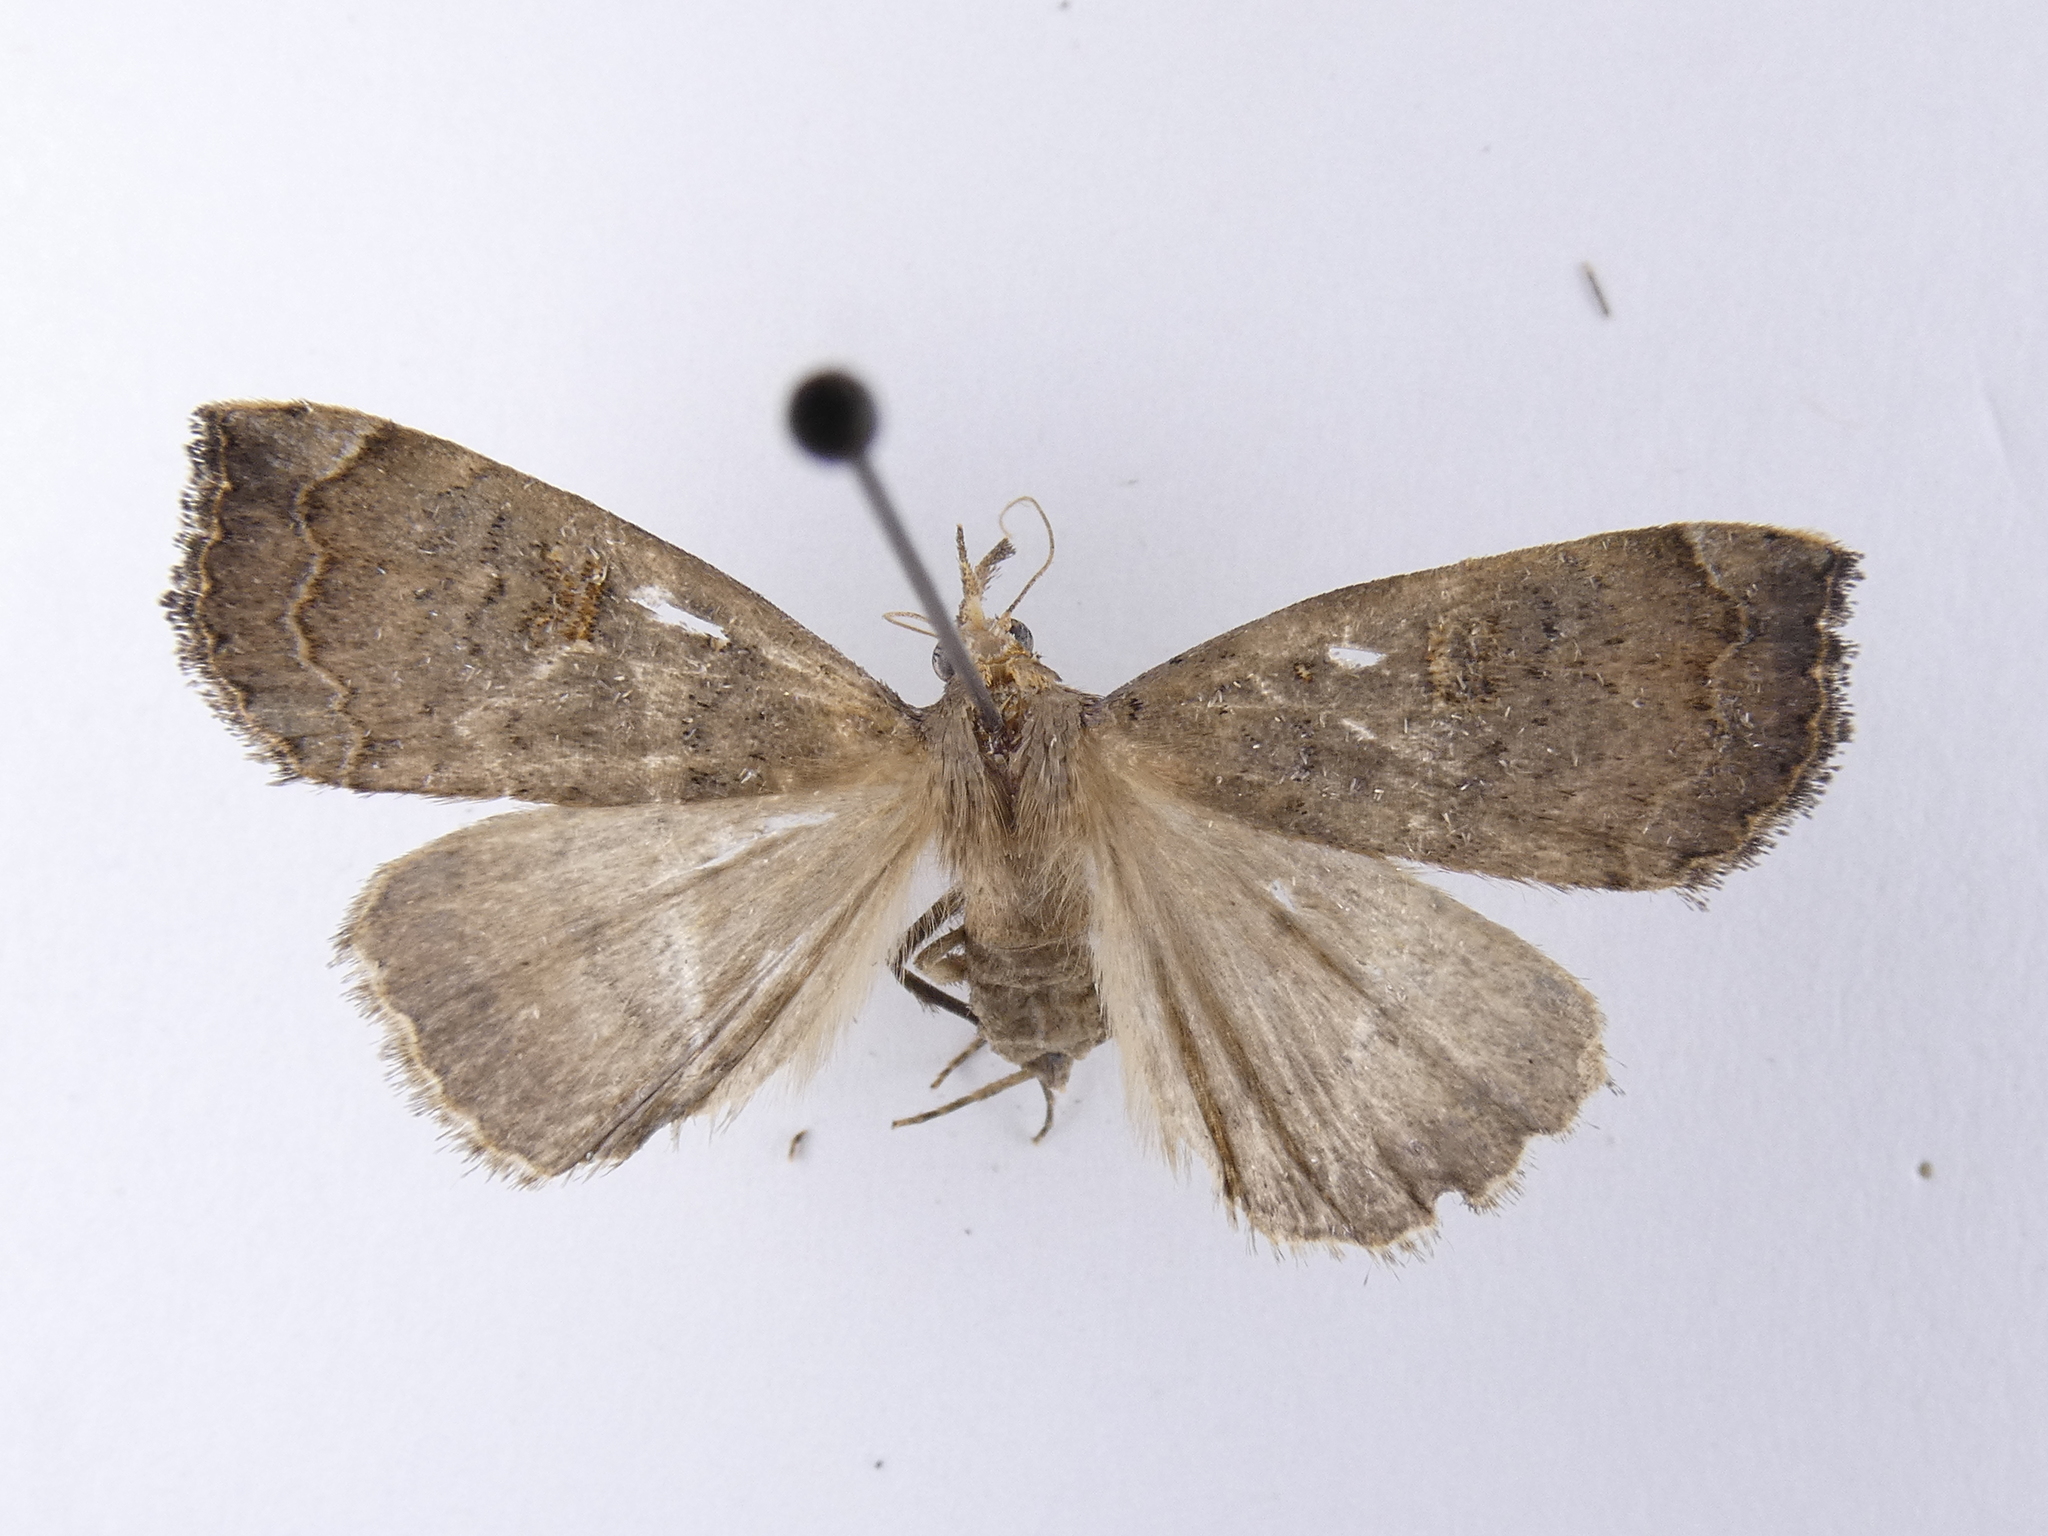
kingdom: Animalia
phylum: Arthropoda
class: Insecta
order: Lepidoptera
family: Erebidae
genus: Rhapsa
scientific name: Rhapsa scotosialis
